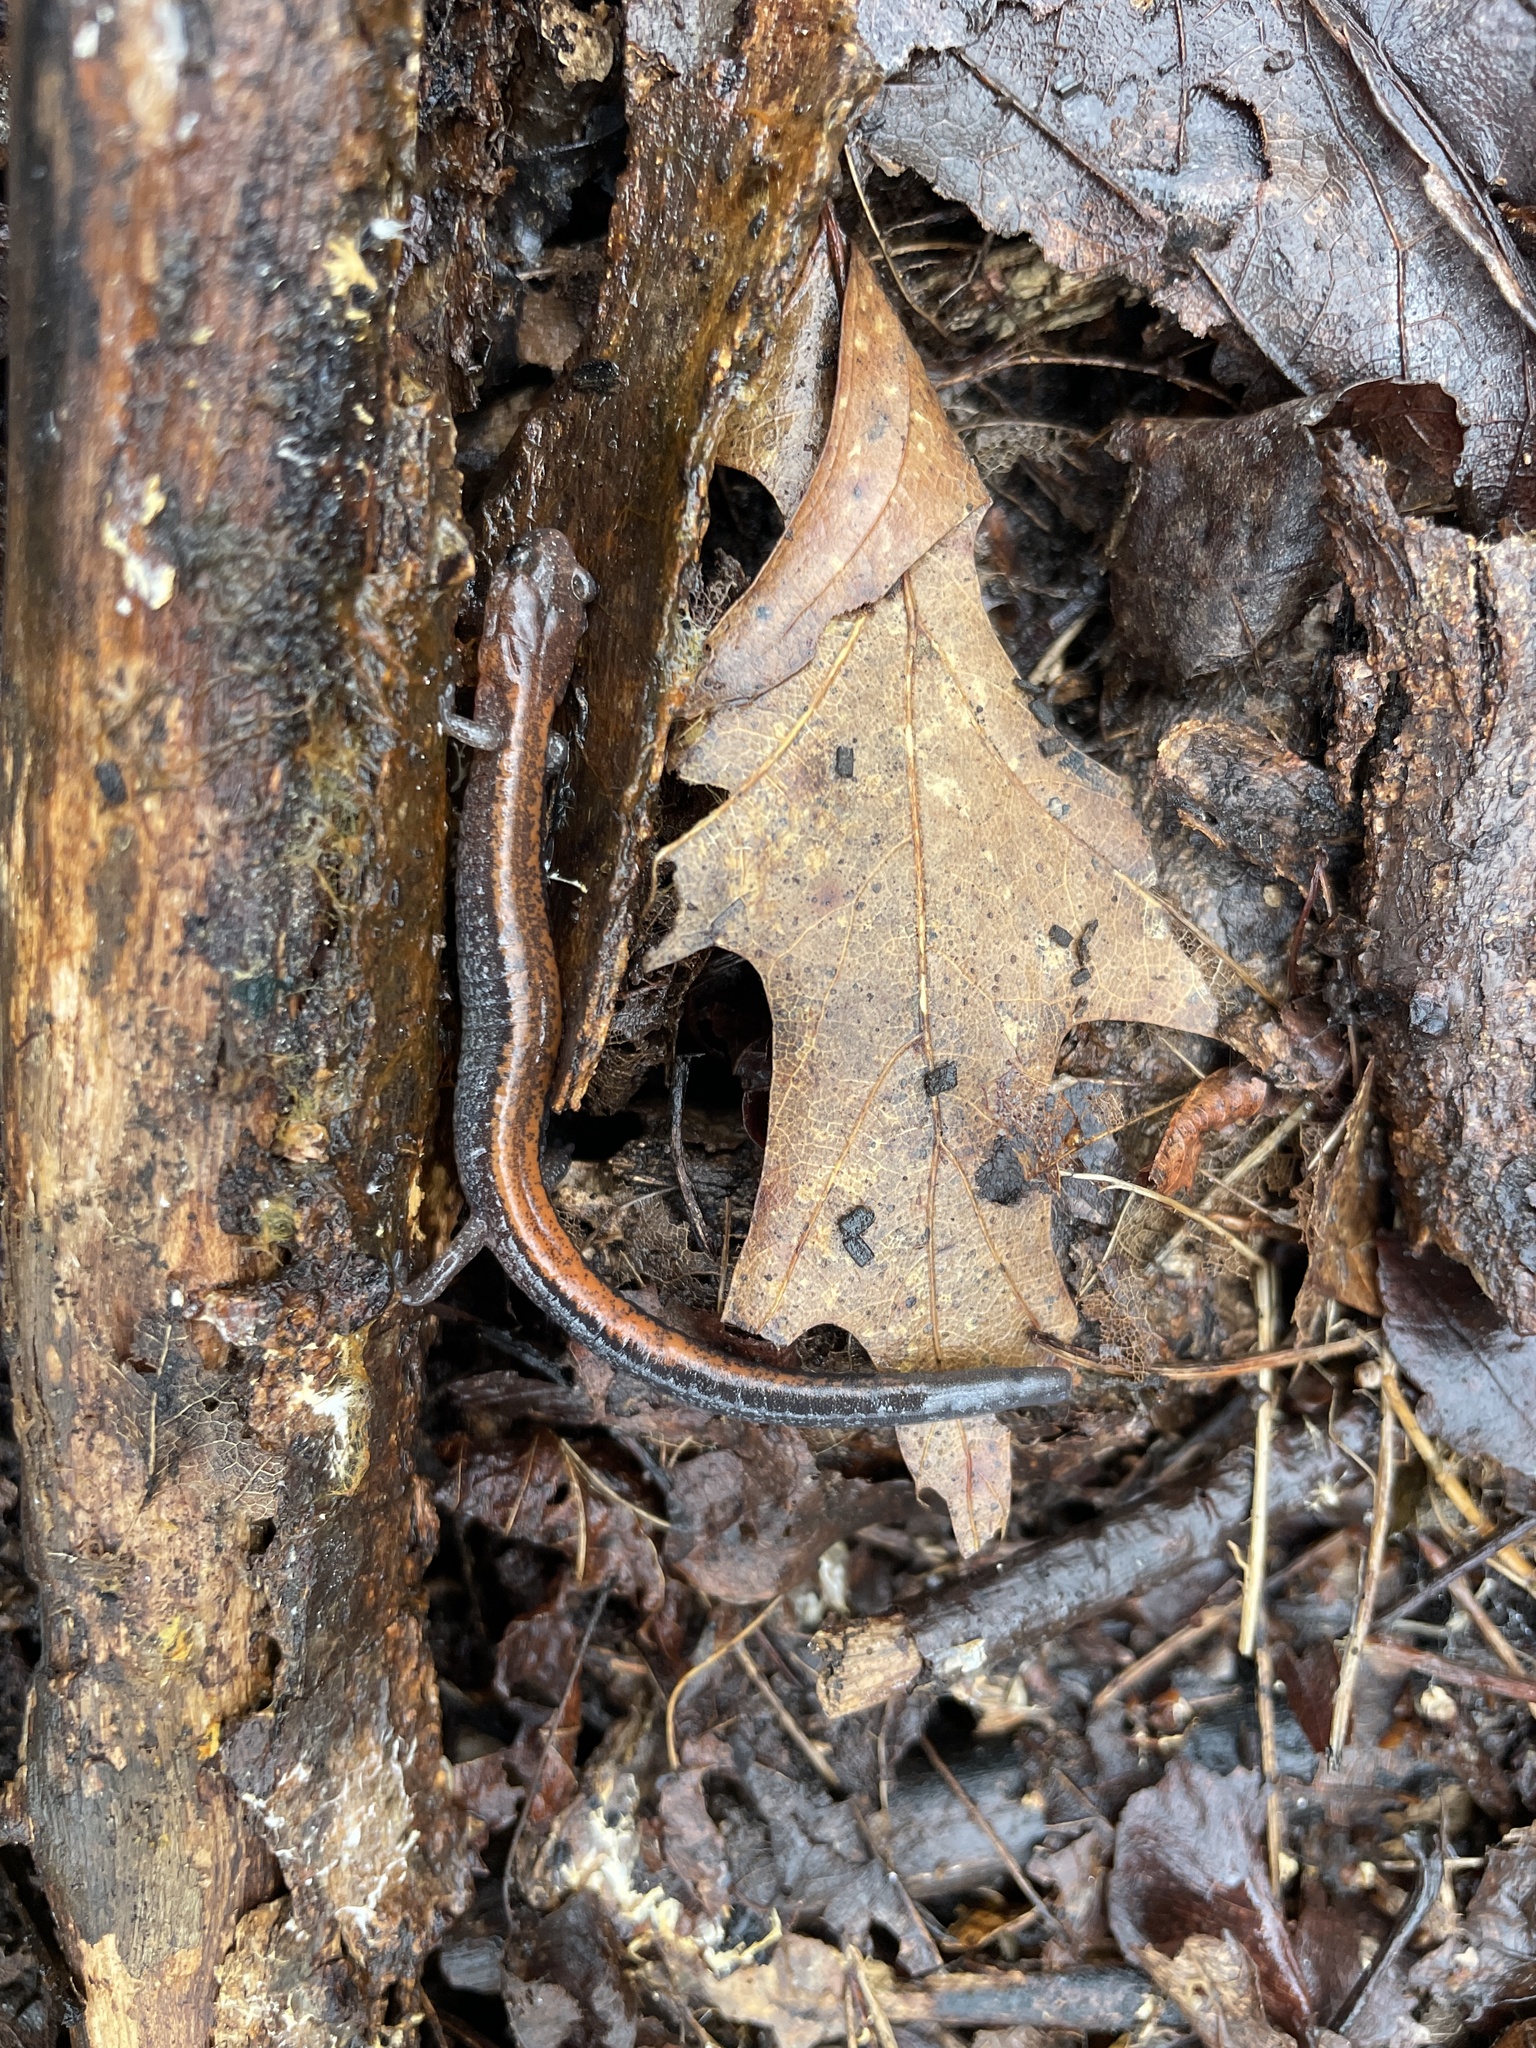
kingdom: Animalia
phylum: Chordata
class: Amphibia
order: Caudata
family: Plethodontidae
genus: Plethodon
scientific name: Plethodon cinereus
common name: Redback salamander
